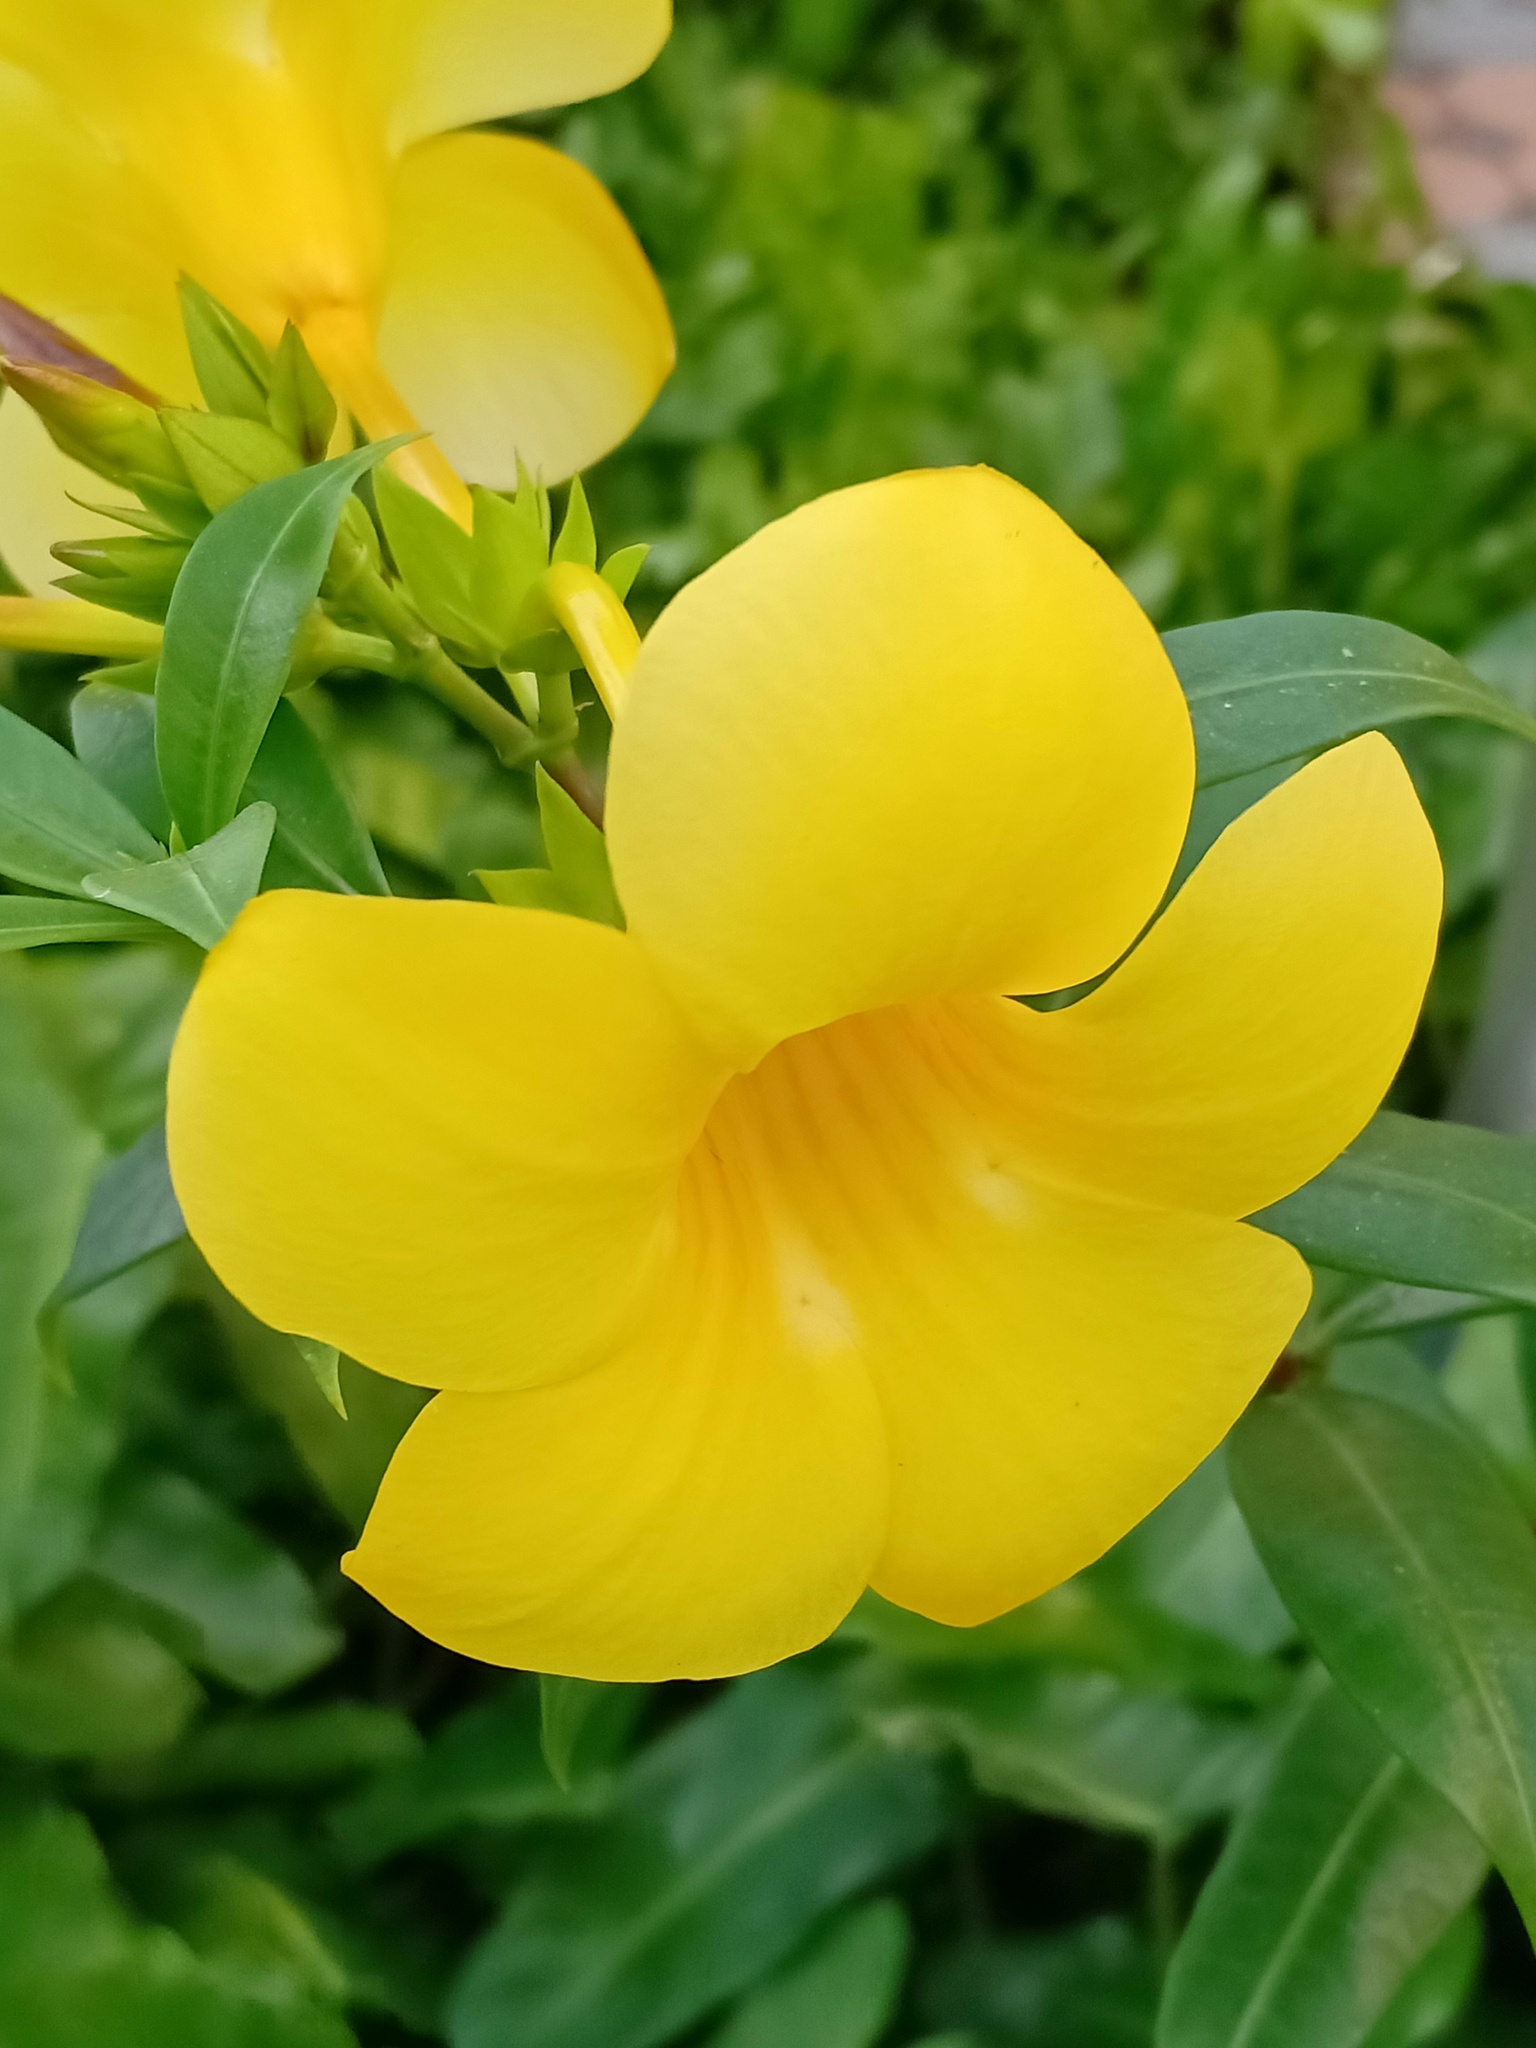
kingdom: Plantae
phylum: Tracheophyta
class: Magnoliopsida
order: Gentianales
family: Apocynaceae
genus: Allamanda
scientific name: Allamanda cathartica
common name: Golden trumpet
